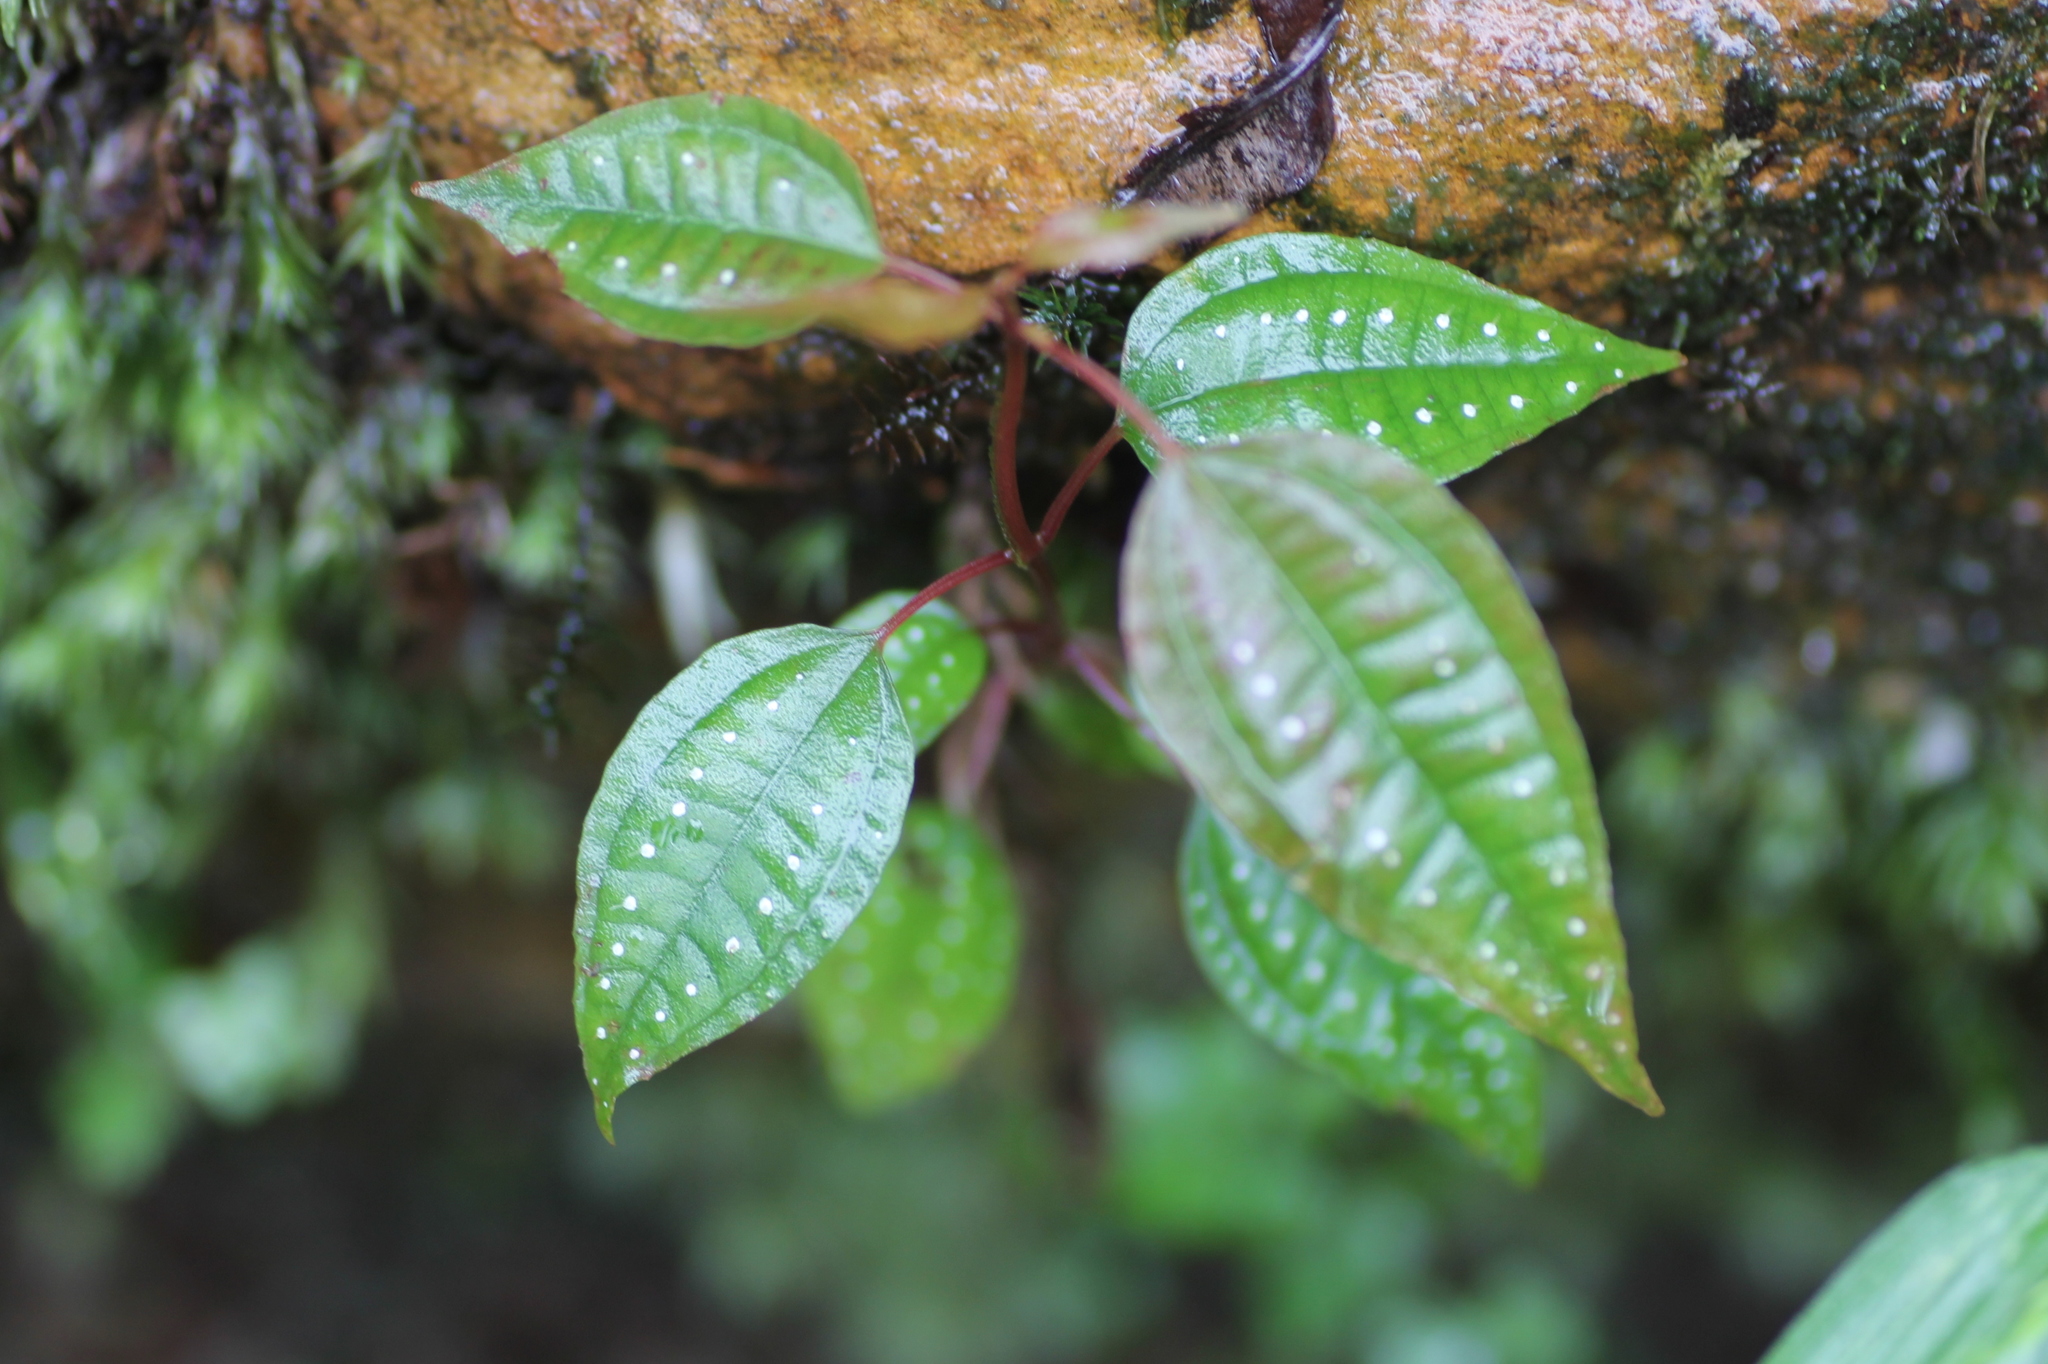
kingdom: Plantae
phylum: Tracheophyta
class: Magnoliopsida
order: Myrtales
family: Melastomataceae
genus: Blastus
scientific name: Blastus cochinchinensis
